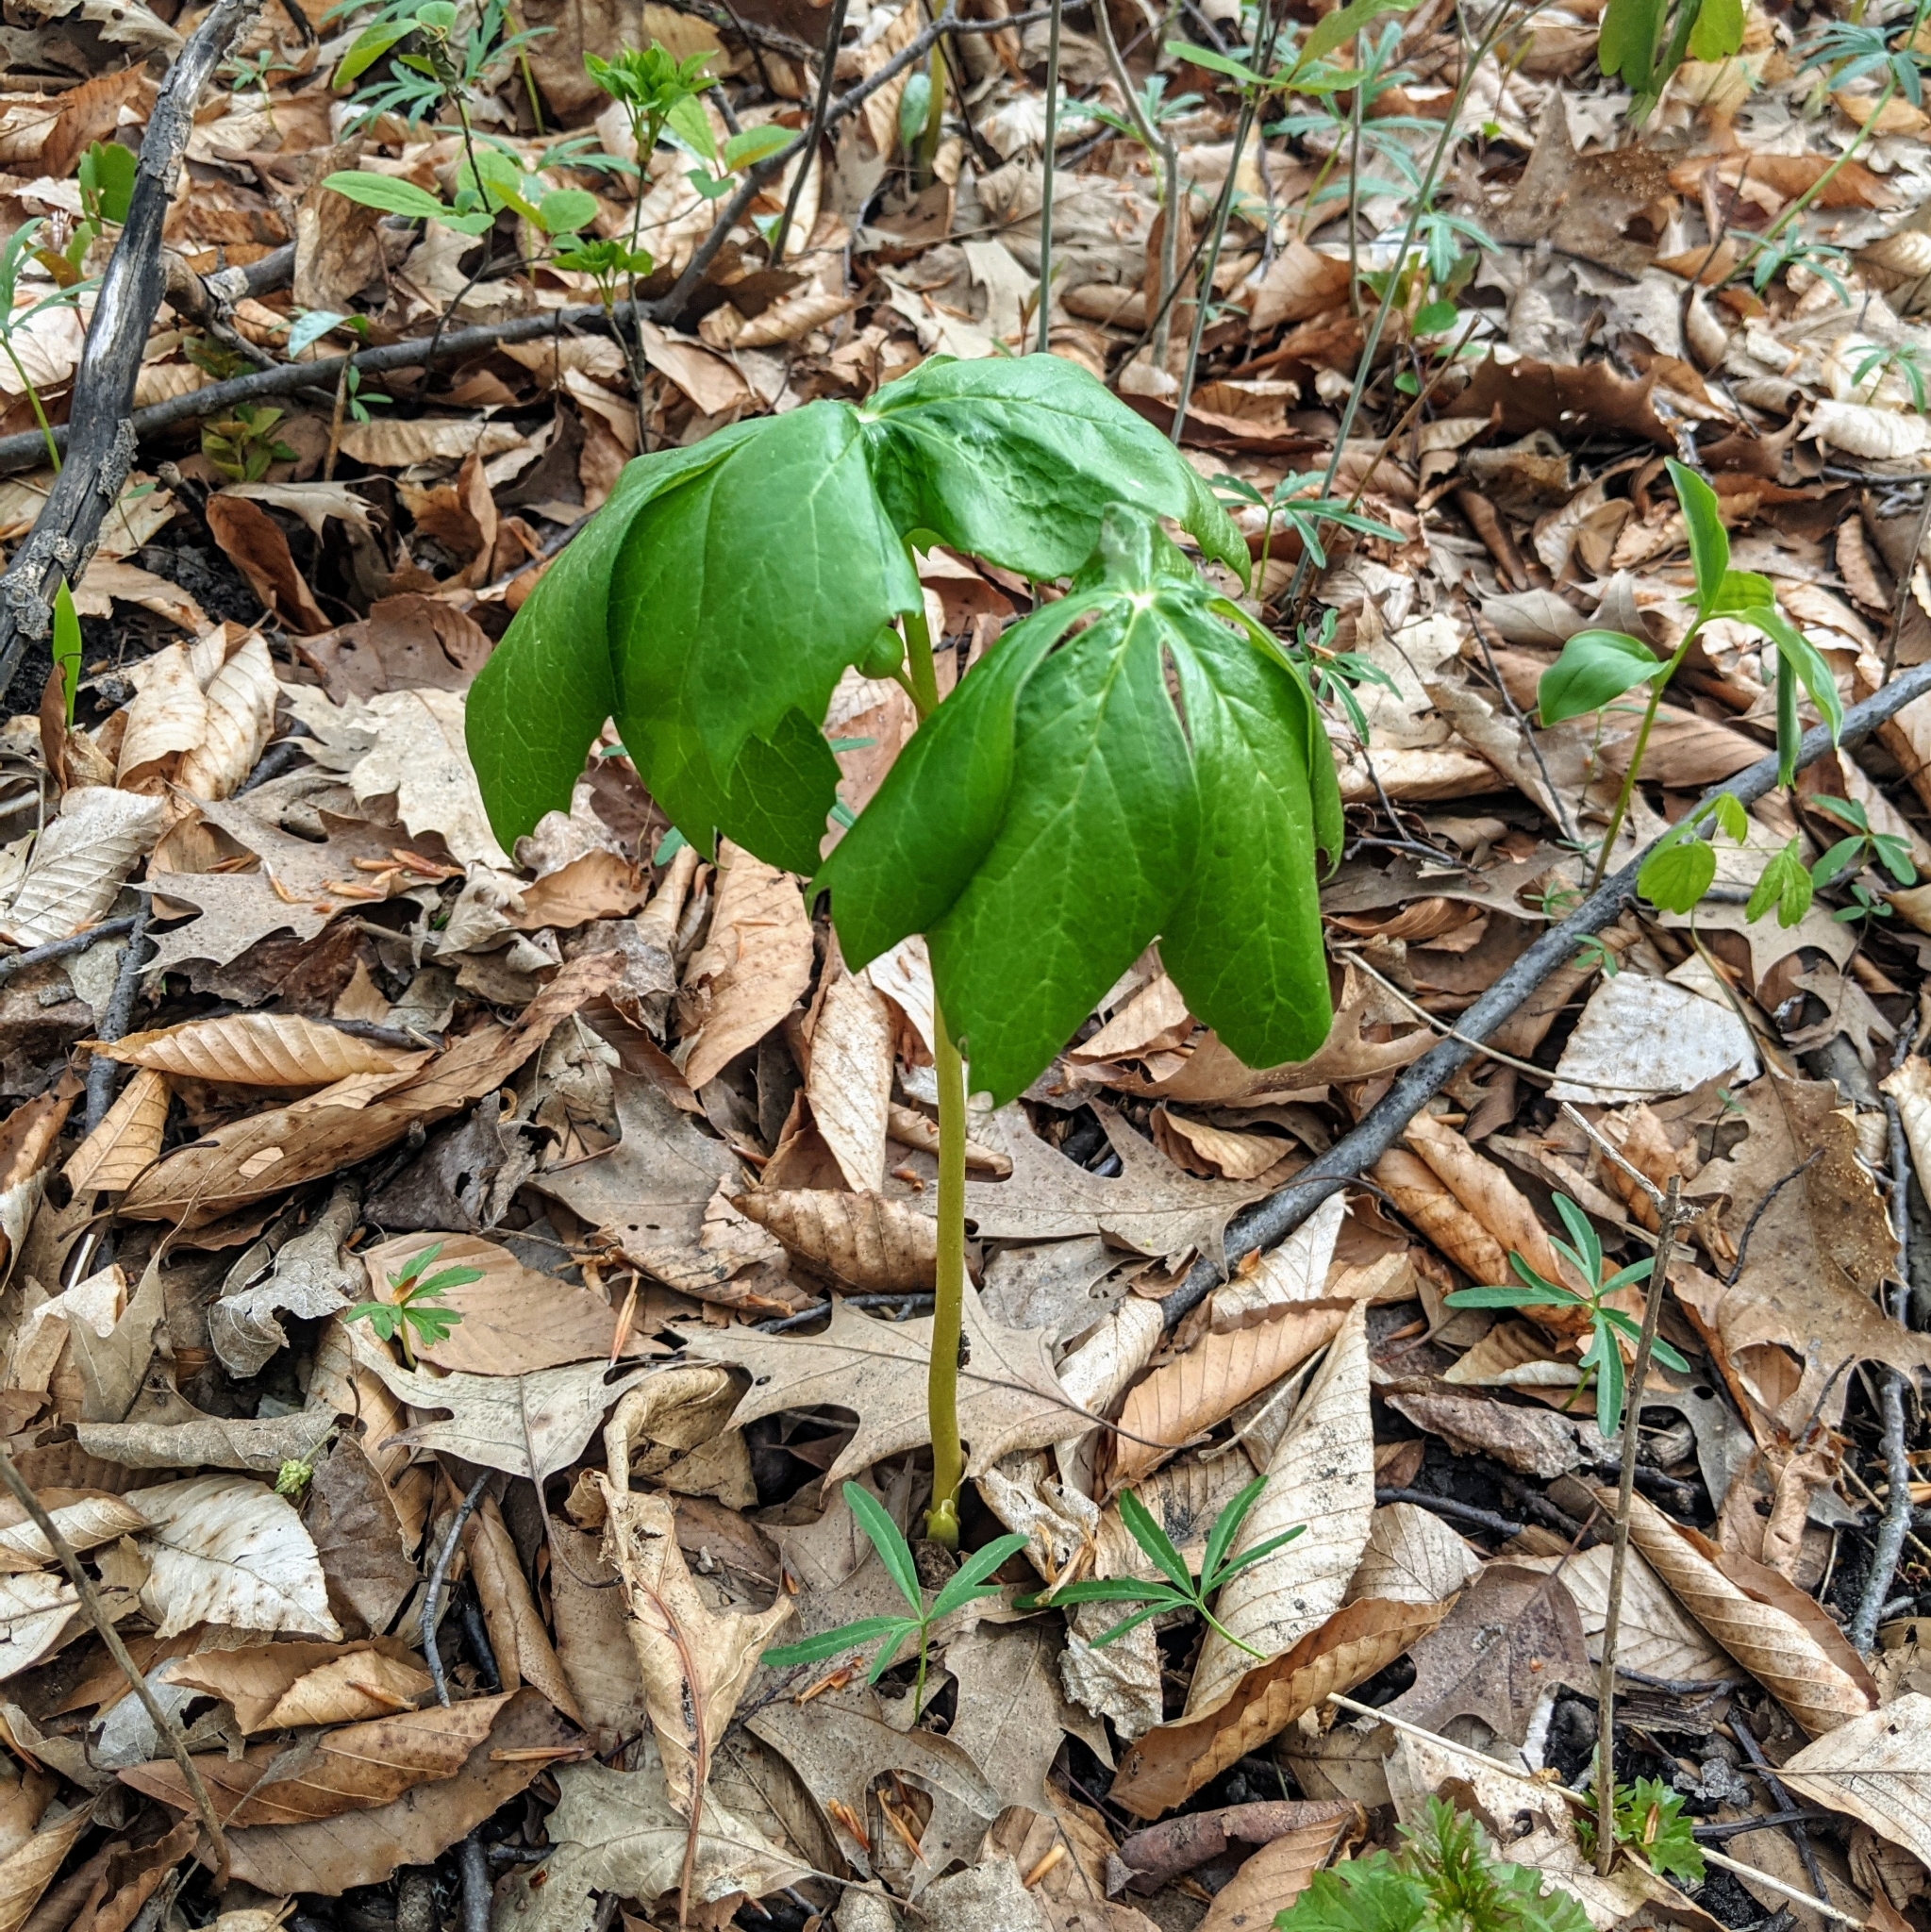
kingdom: Plantae
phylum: Tracheophyta
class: Magnoliopsida
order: Ranunculales
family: Berberidaceae
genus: Podophyllum
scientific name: Podophyllum peltatum
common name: Wild mandrake
